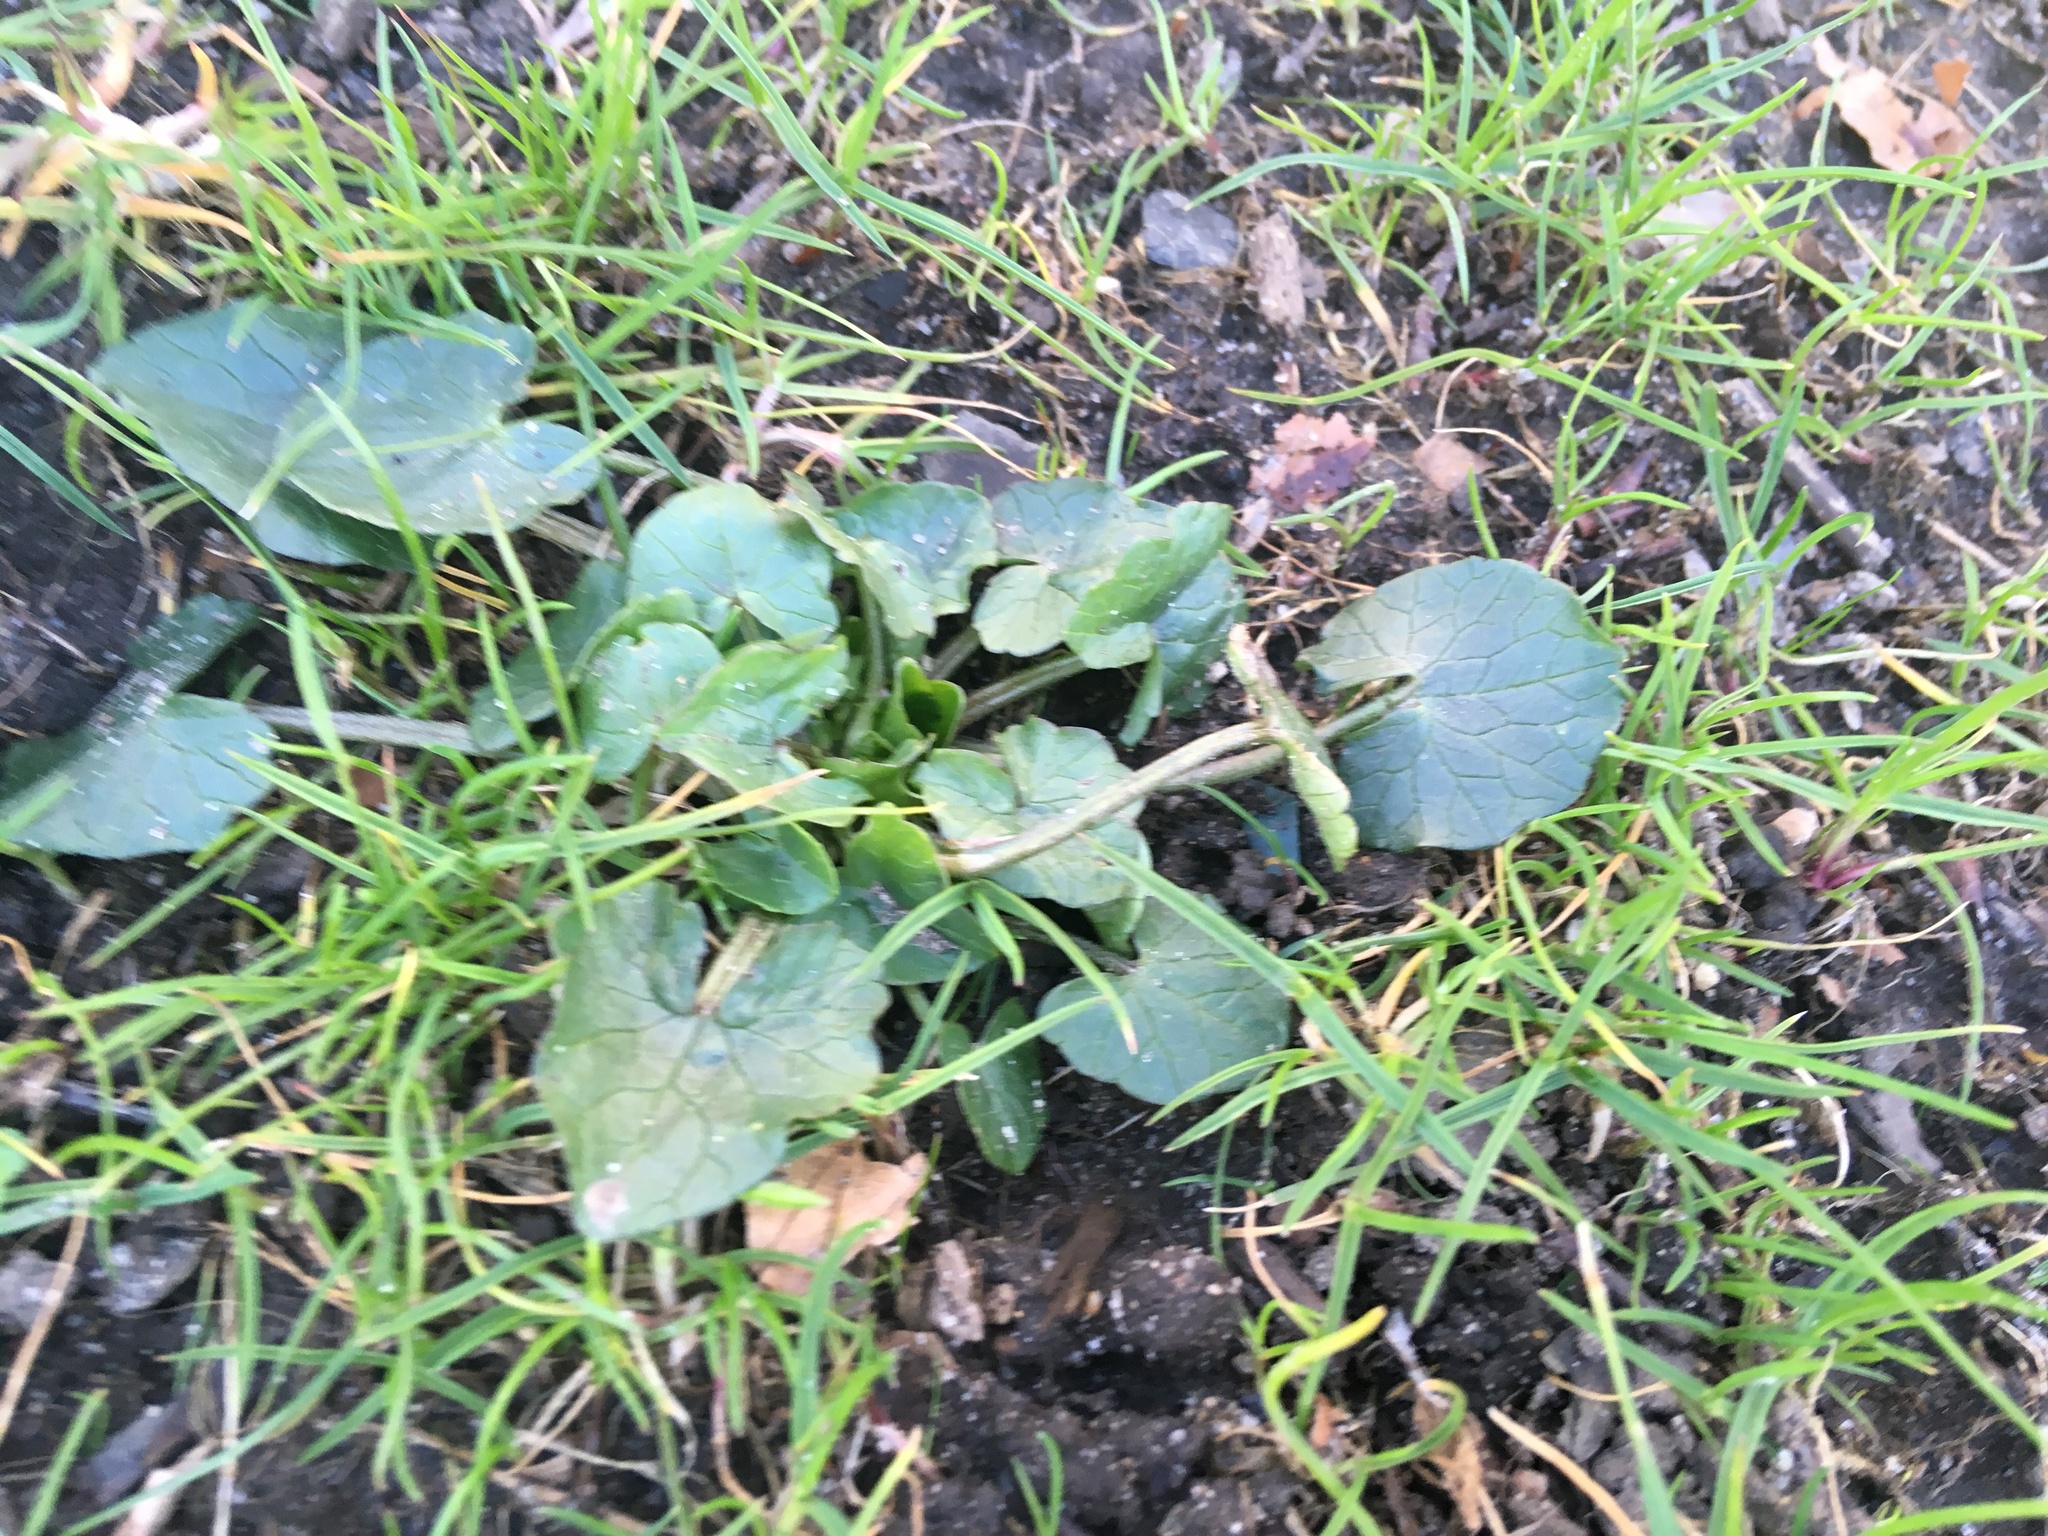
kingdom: Plantae
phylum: Tracheophyta
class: Magnoliopsida
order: Ranunculales
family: Ranunculaceae
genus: Ficaria
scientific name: Ficaria verna
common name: Lesser celandine
